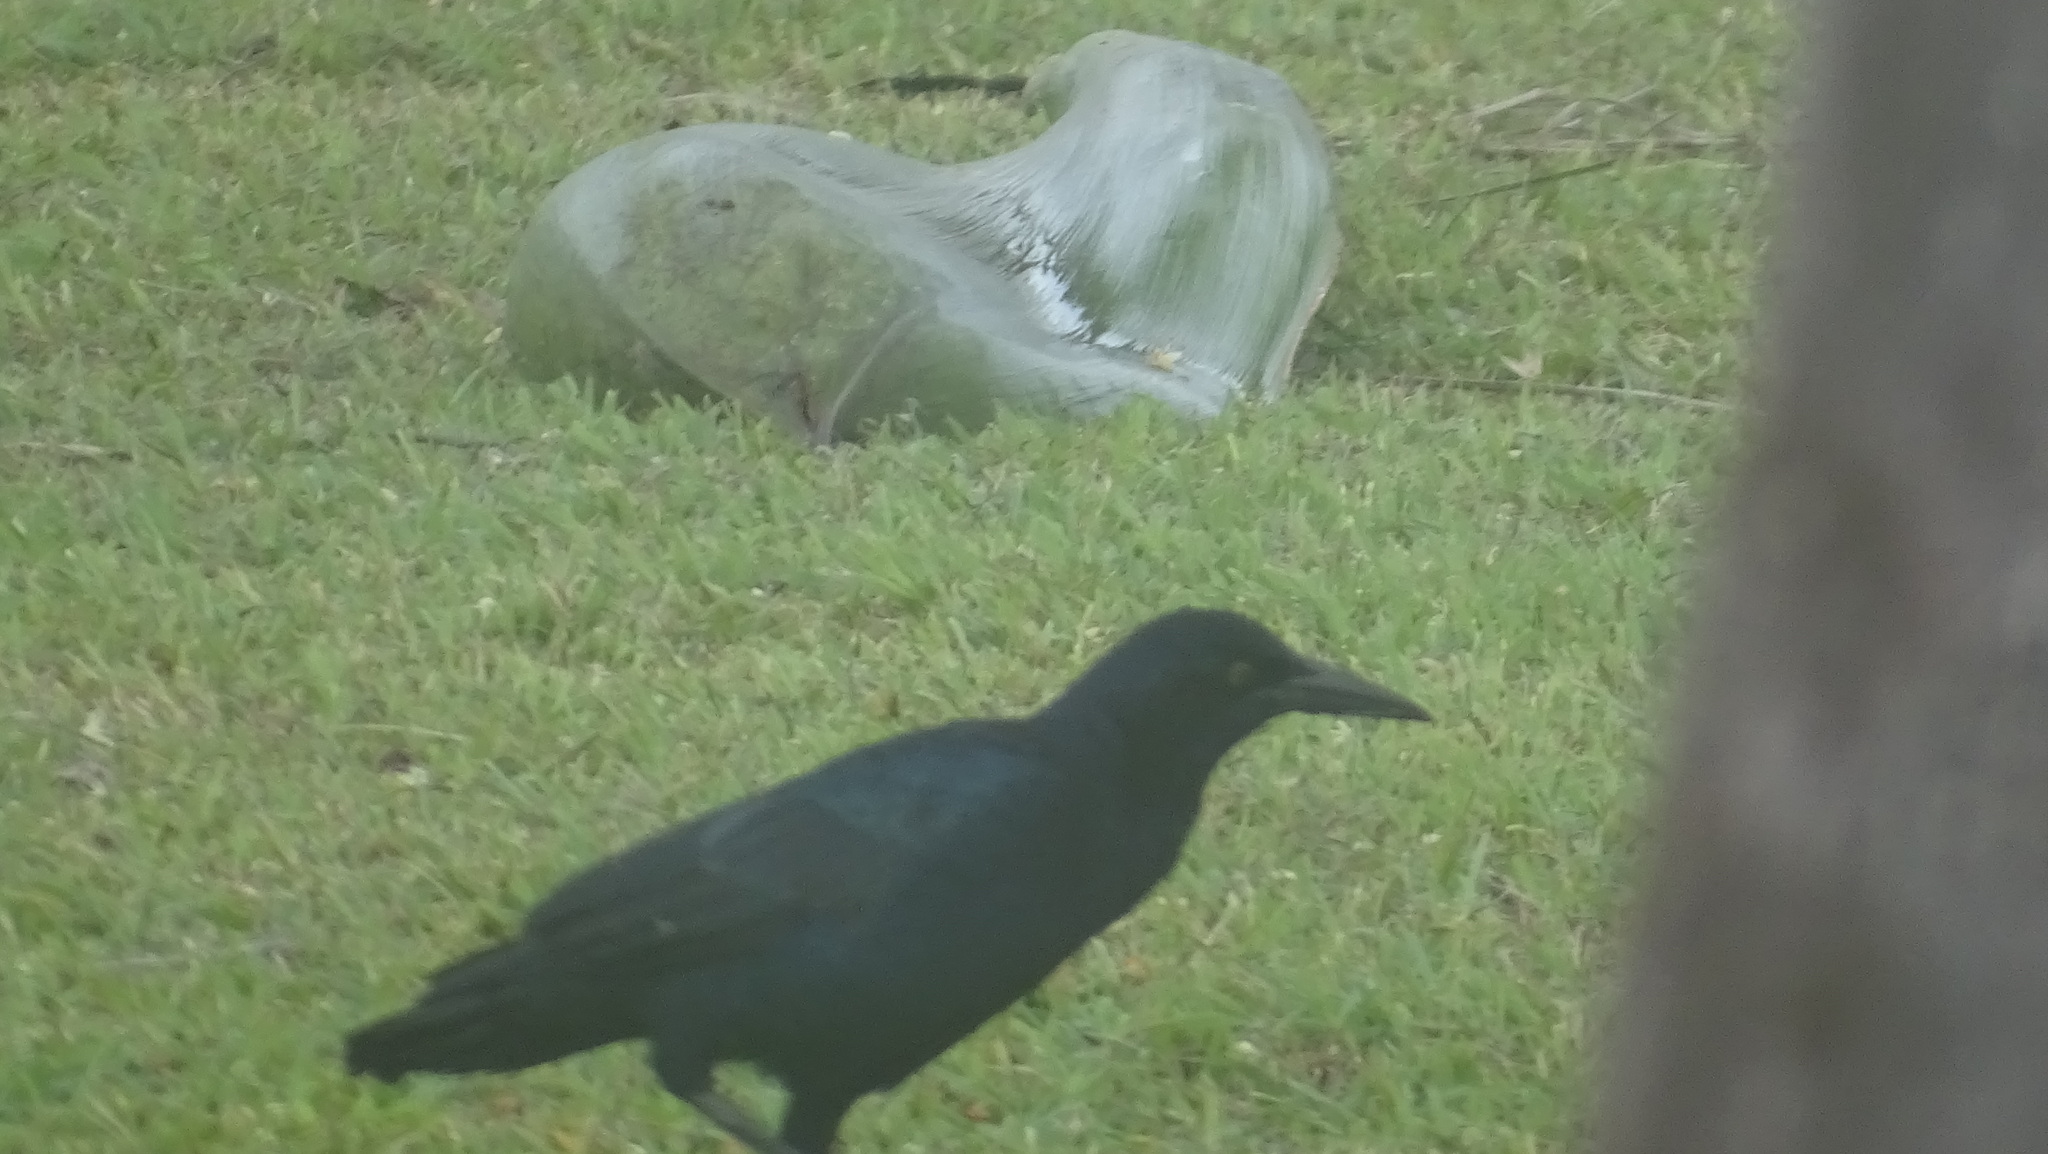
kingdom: Animalia
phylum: Chordata
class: Aves
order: Passeriformes
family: Tyrannidae
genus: Tyrannus
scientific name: Tyrannus tyrannus
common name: Eastern kingbird
